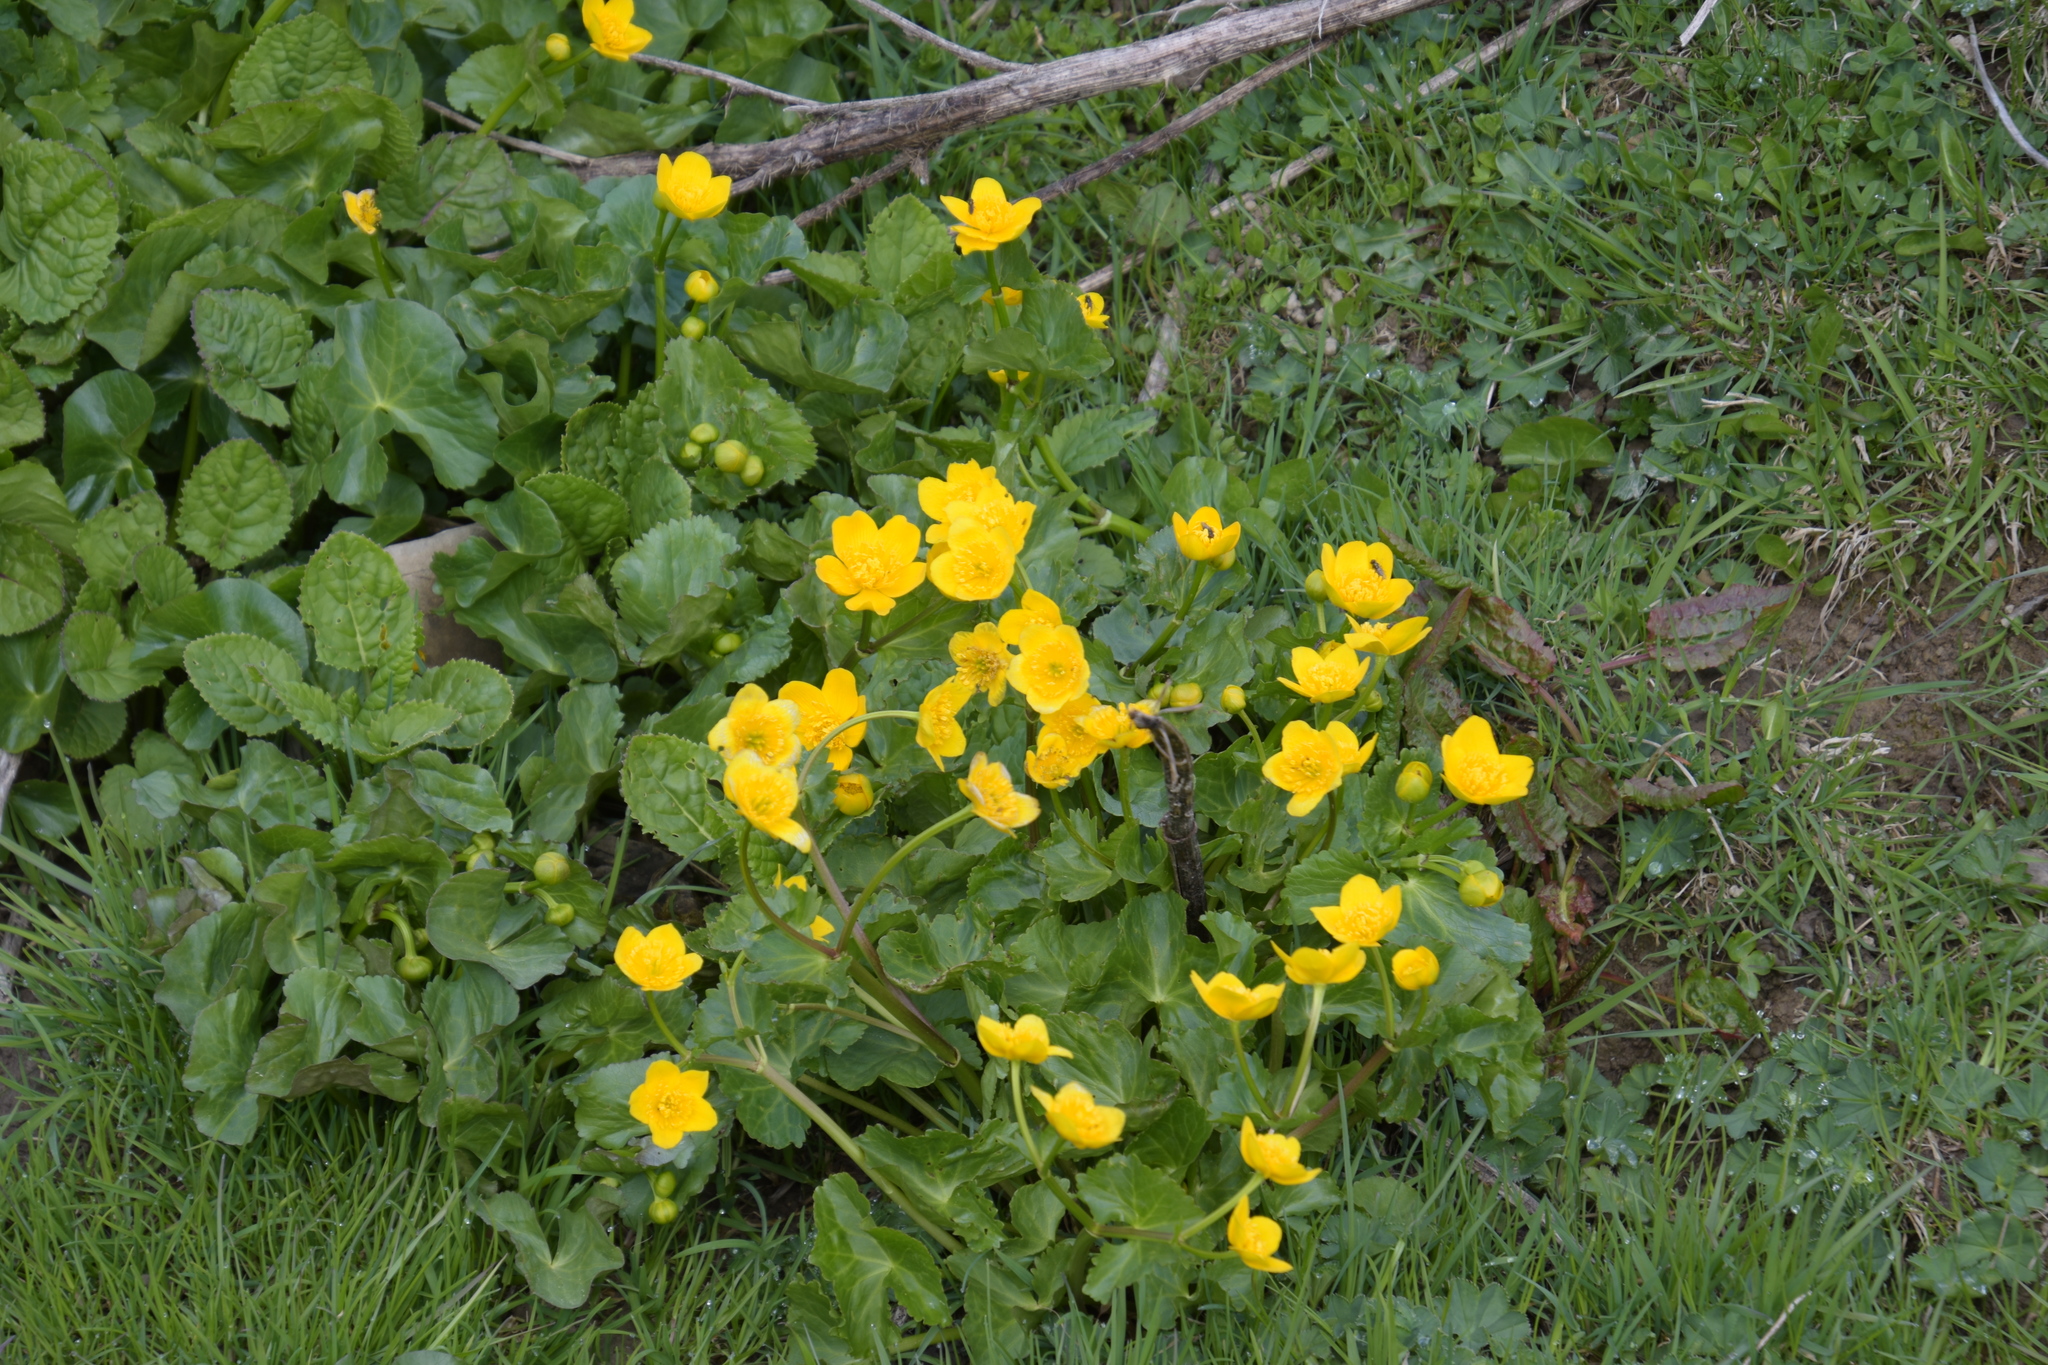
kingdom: Plantae
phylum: Tracheophyta
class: Magnoliopsida
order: Ranunculales
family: Ranunculaceae
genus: Caltha
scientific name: Caltha palustris
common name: Marsh marigold
